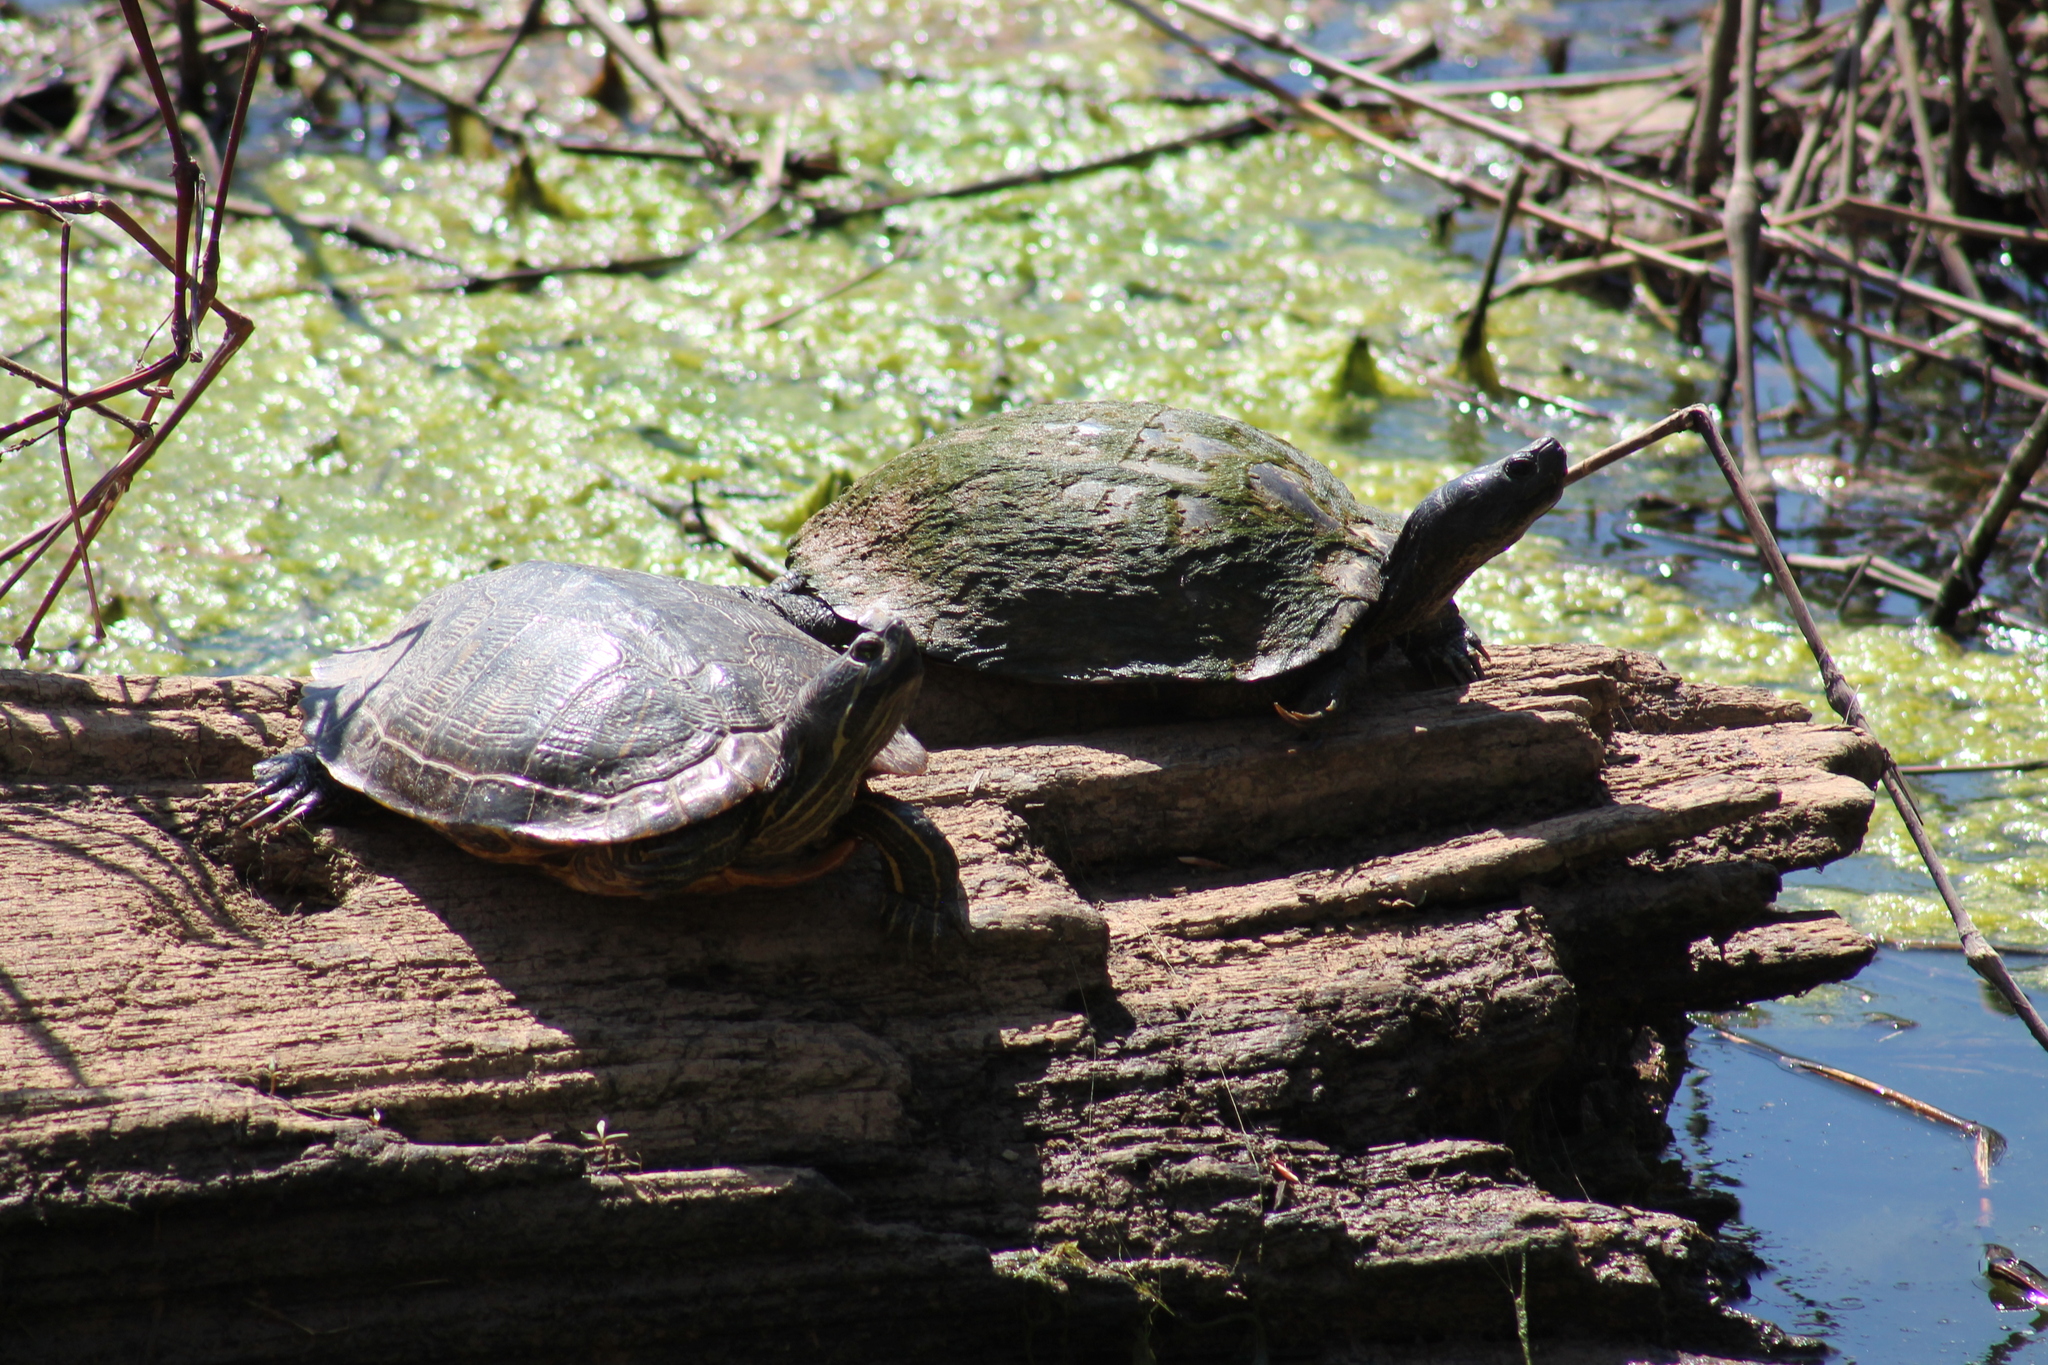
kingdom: Animalia
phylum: Chordata
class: Testudines
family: Emydidae
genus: Trachemys
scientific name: Trachemys scripta
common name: Slider
